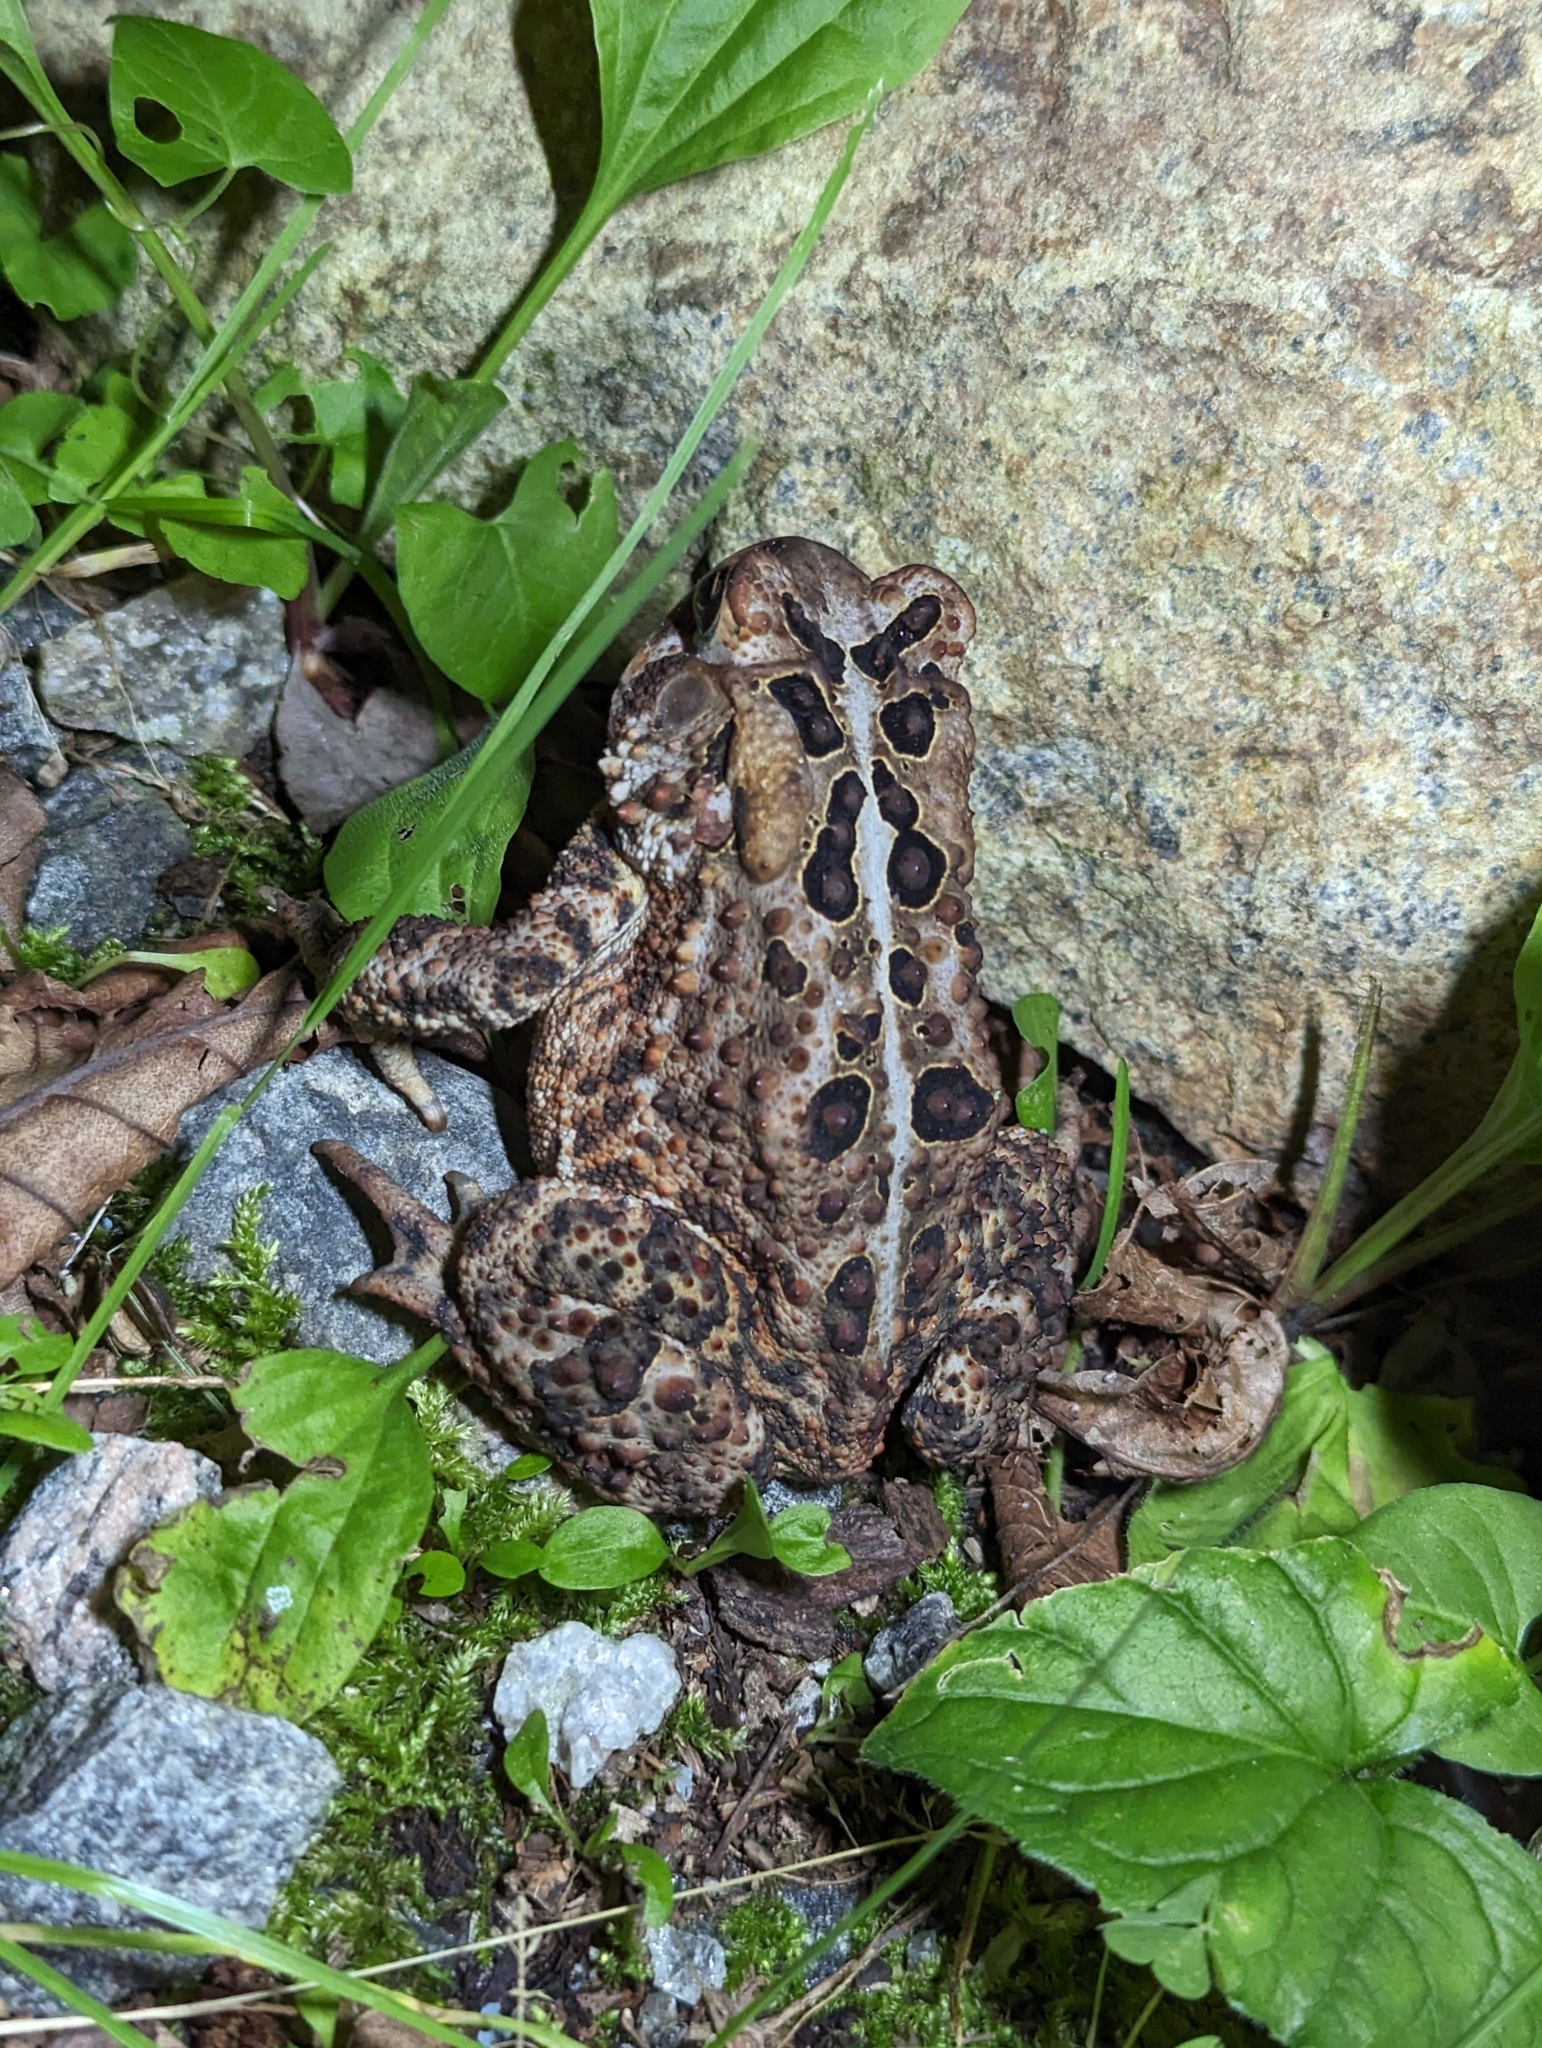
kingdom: Animalia
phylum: Chordata
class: Amphibia
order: Anura
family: Bufonidae
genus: Anaxyrus
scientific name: Anaxyrus americanus
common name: American toad
